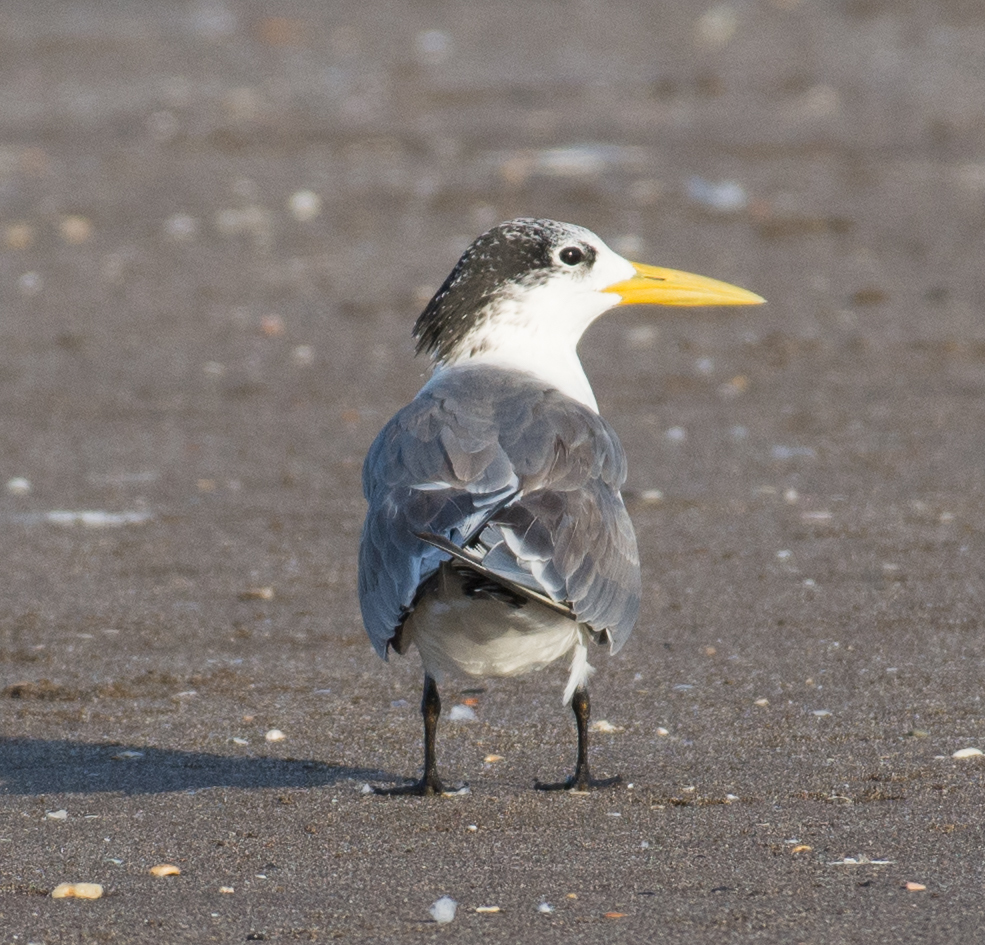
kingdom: Animalia
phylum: Chordata
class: Aves
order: Charadriiformes
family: Laridae
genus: Thalasseus
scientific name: Thalasseus bergii
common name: Greater crested tern
